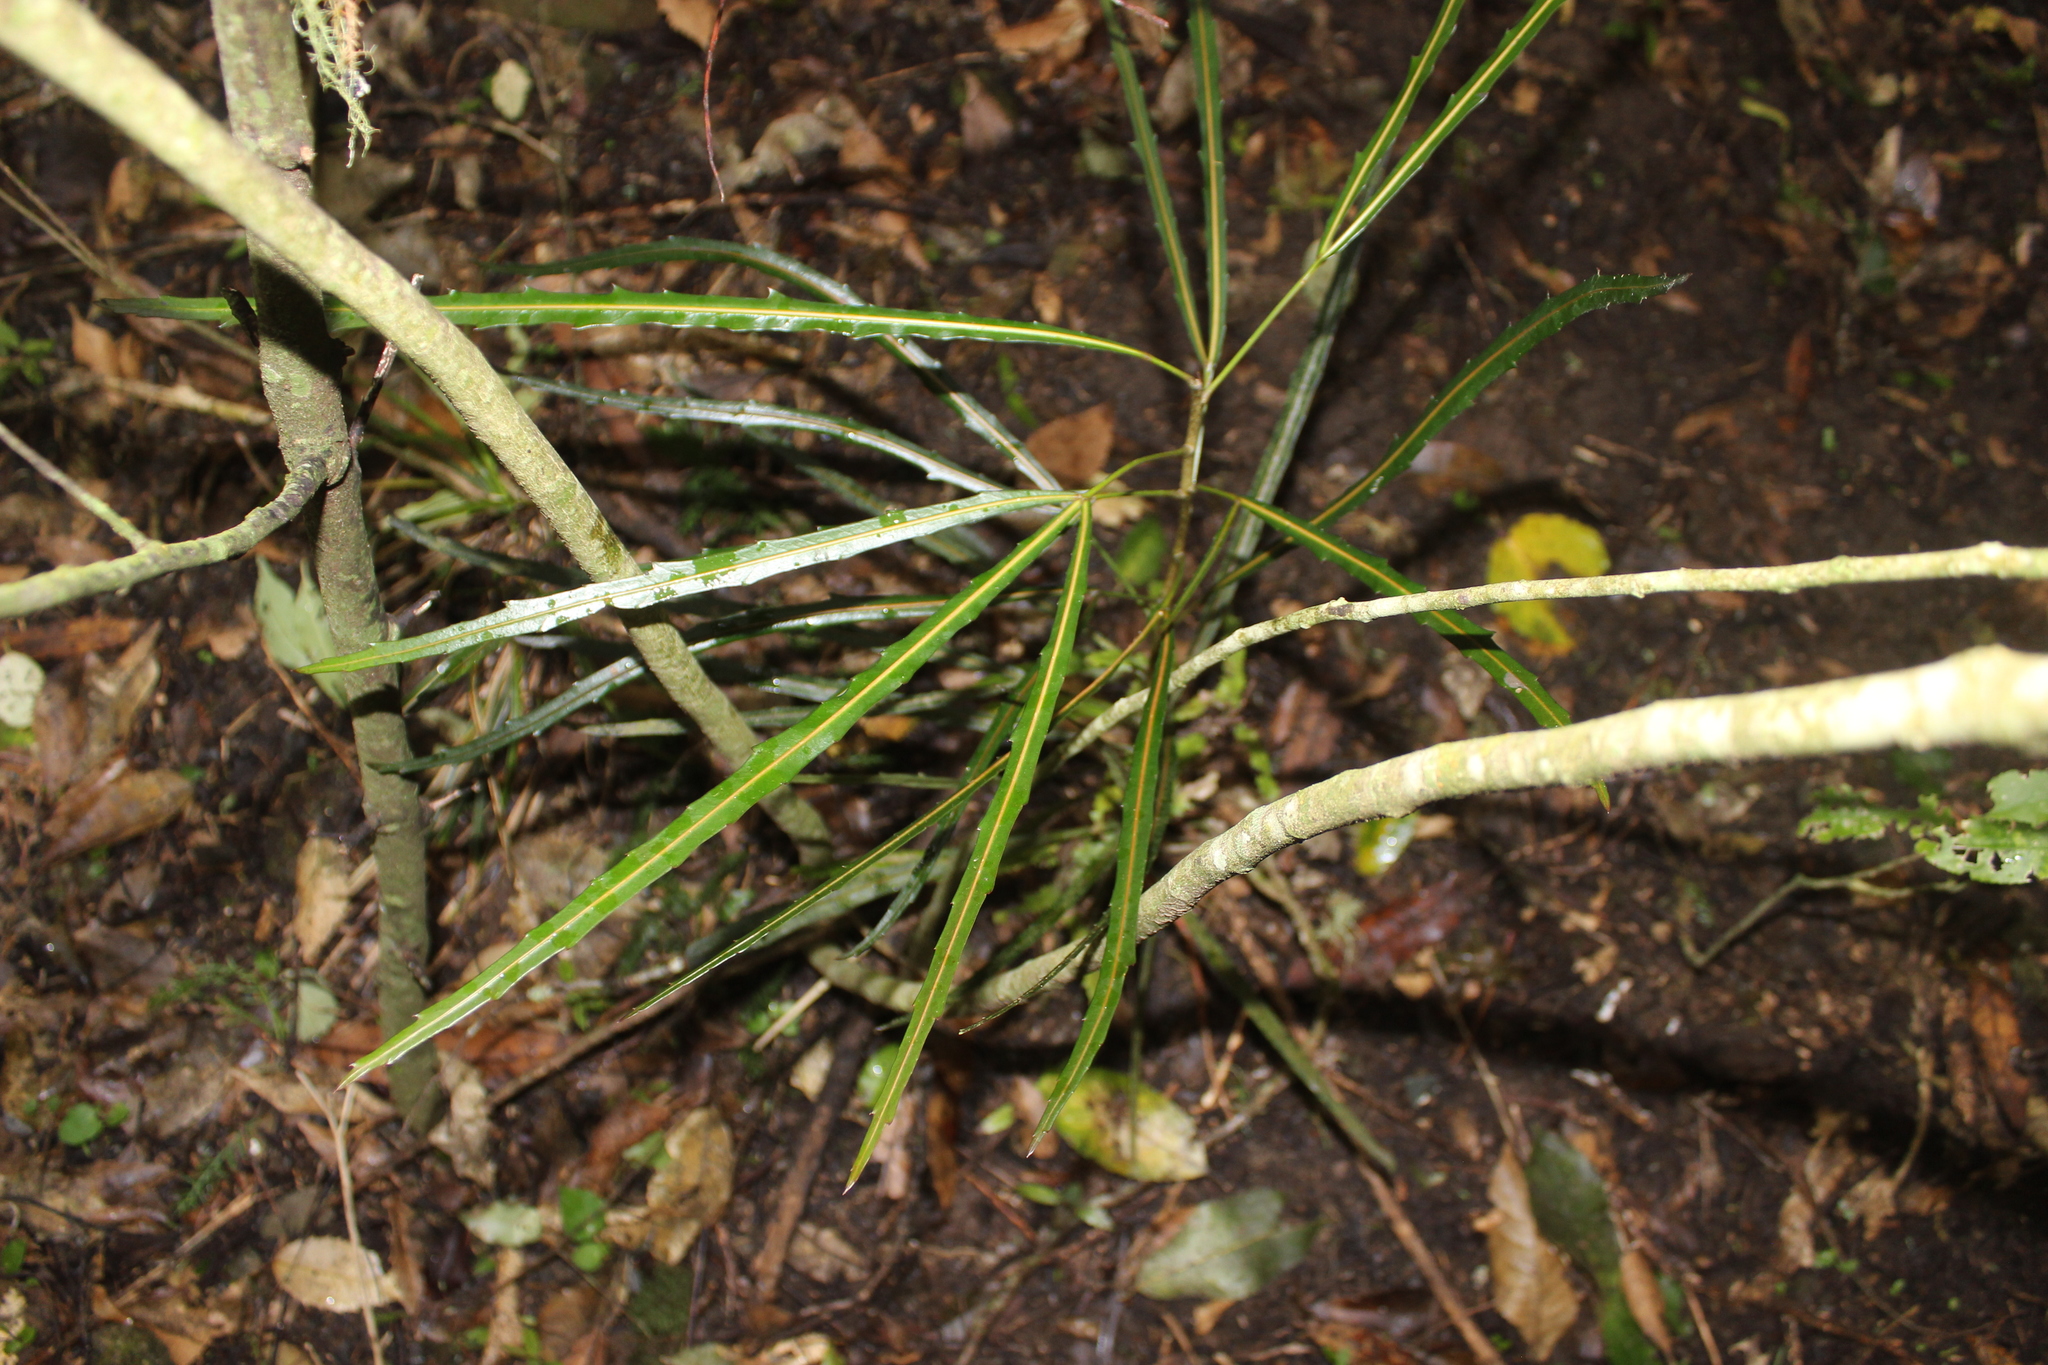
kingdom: Plantae
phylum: Tracheophyta
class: Magnoliopsida
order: Apiales
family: Araliaceae
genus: Pseudopanax
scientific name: Pseudopanax
